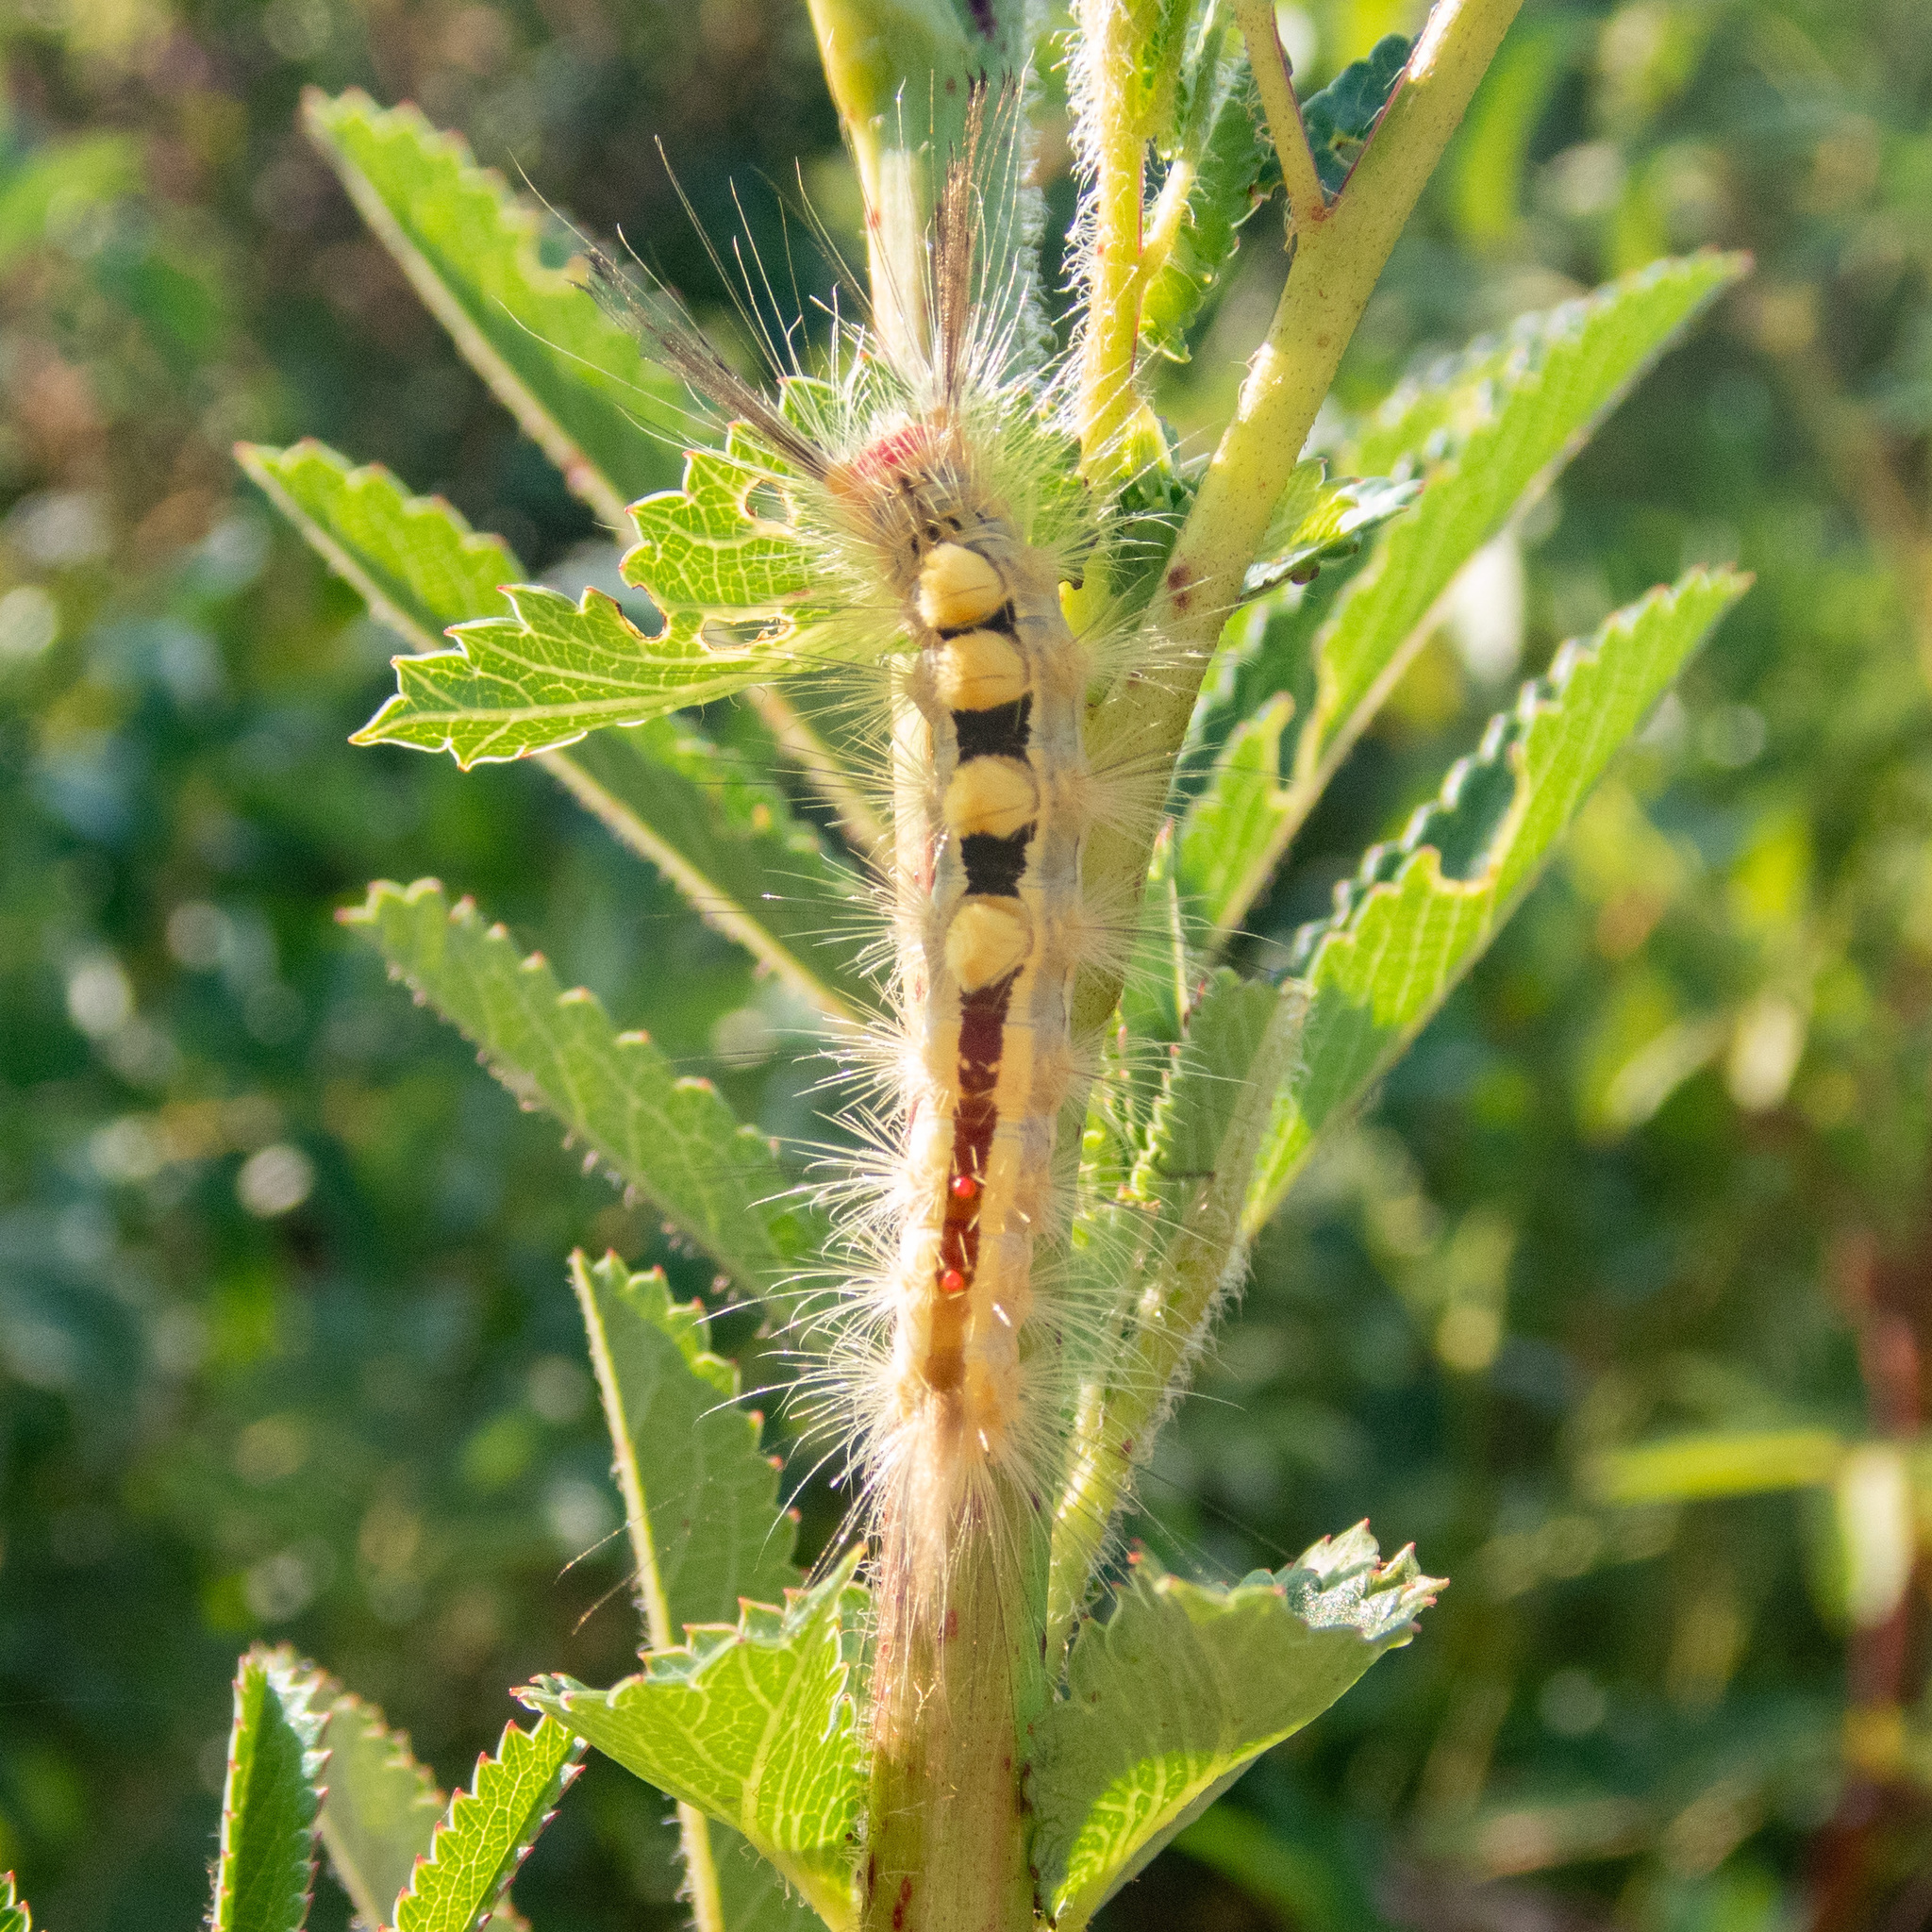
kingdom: Animalia
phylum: Arthropoda
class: Insecta
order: Lepidoptera
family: Erebidae
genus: Orgyia
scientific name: Orgyia leucostigma
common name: White-marked tussock moth
